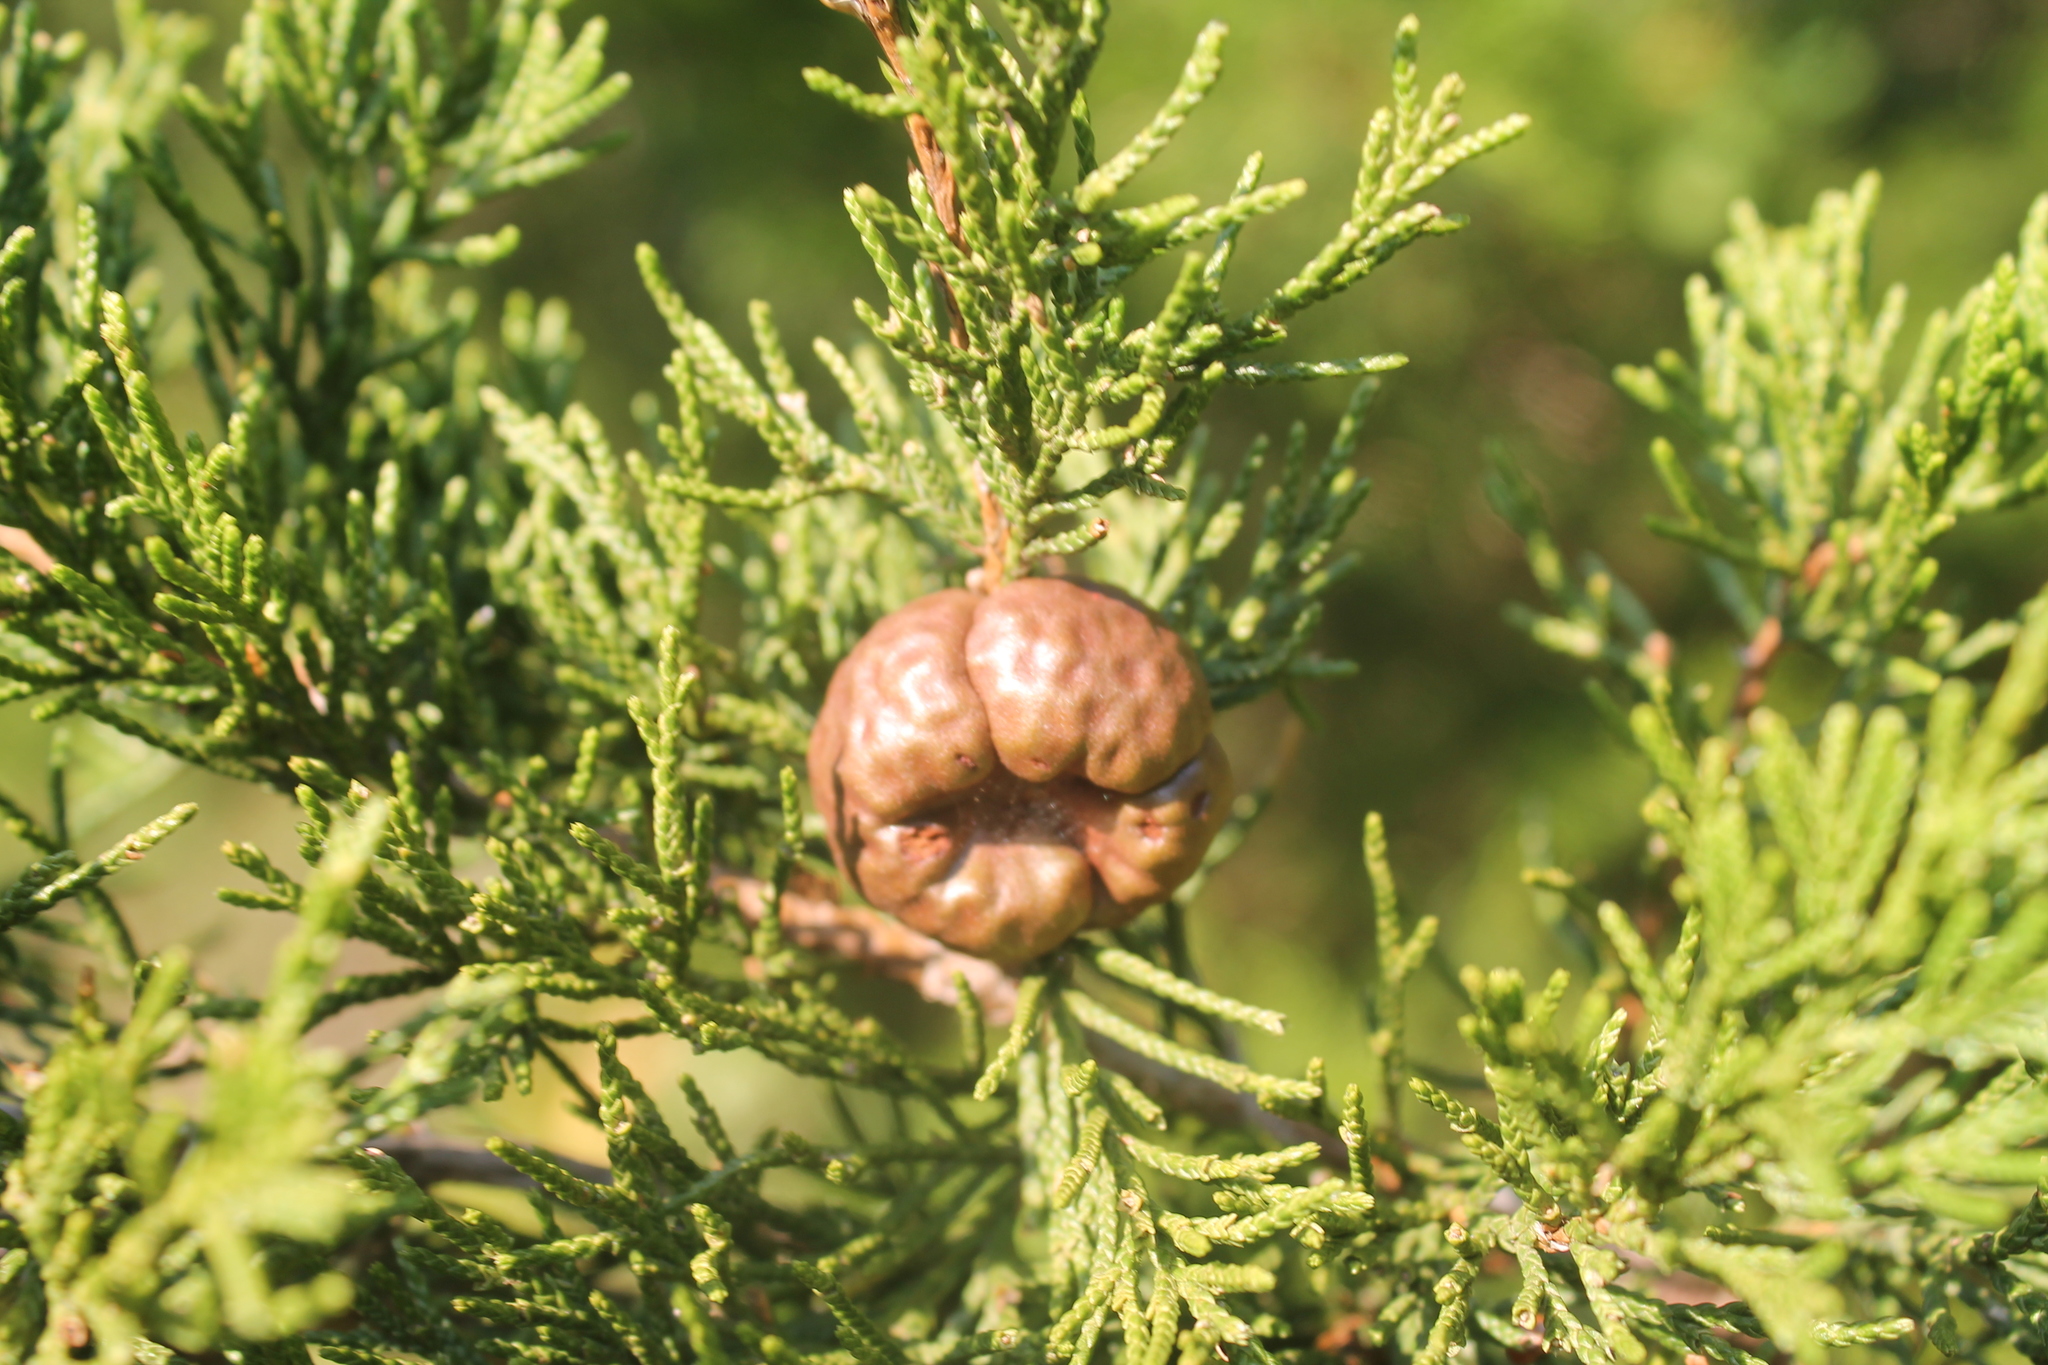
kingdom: Fungi
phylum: Basidiomycota
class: Pucciniomycetes
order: Pucciniales
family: Gymnosporangiaceae
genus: Gymnosporangium
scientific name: Gymnosporangium juniperi-virginianae
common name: Juniper-apple rust
